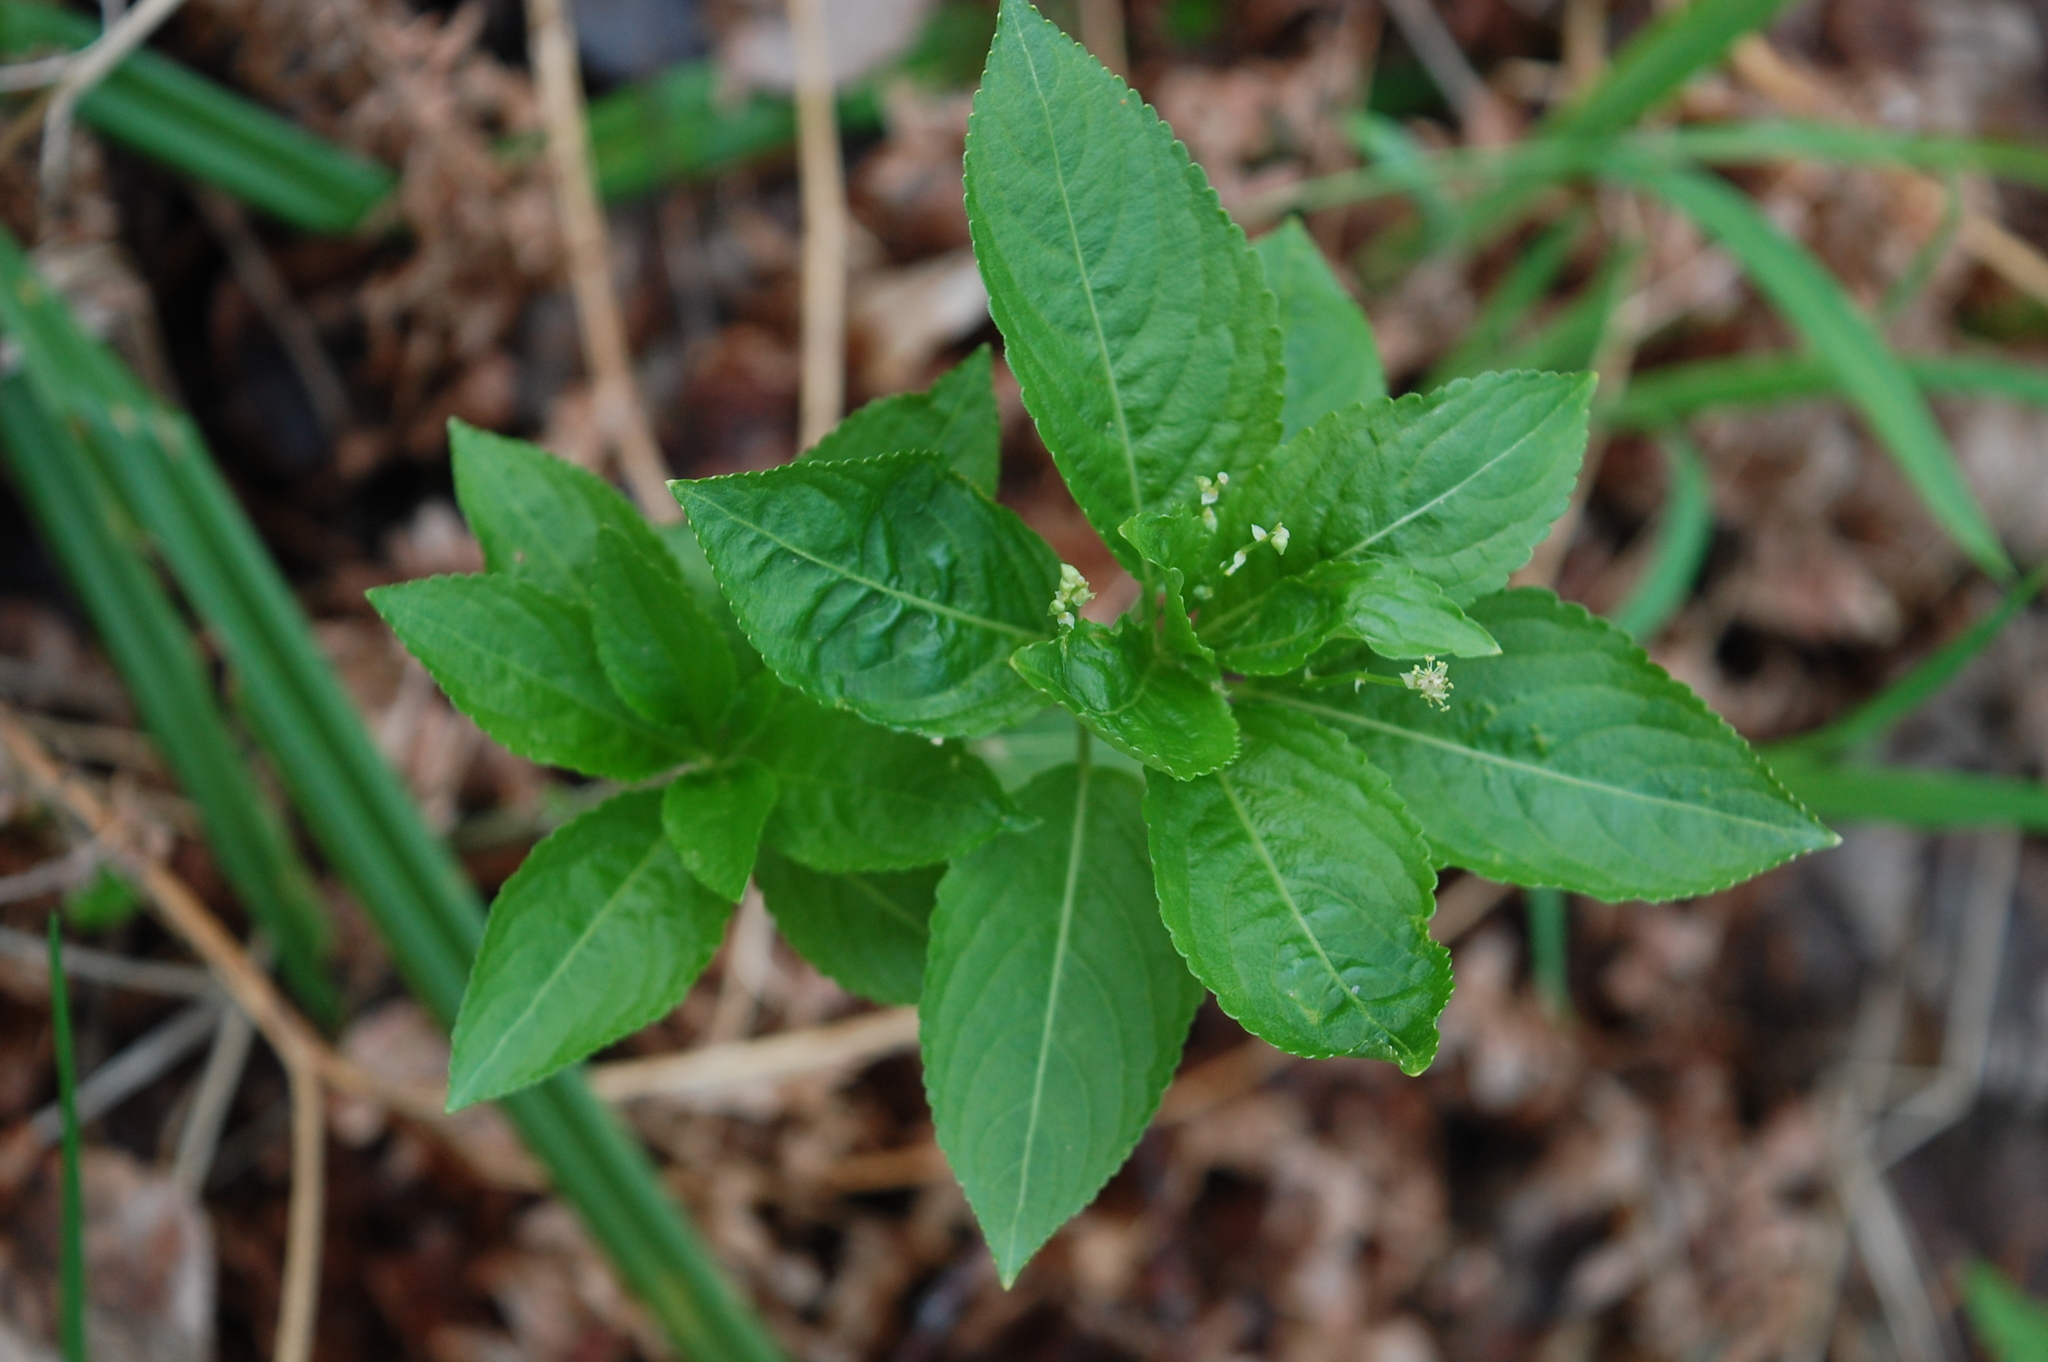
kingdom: Plantae
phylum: Tracheophyta
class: Magnoliopsida
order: Malpighiales
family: Euphorbiaceae
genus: Mercurialis
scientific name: Mercurialis perennis
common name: Dog mercury
